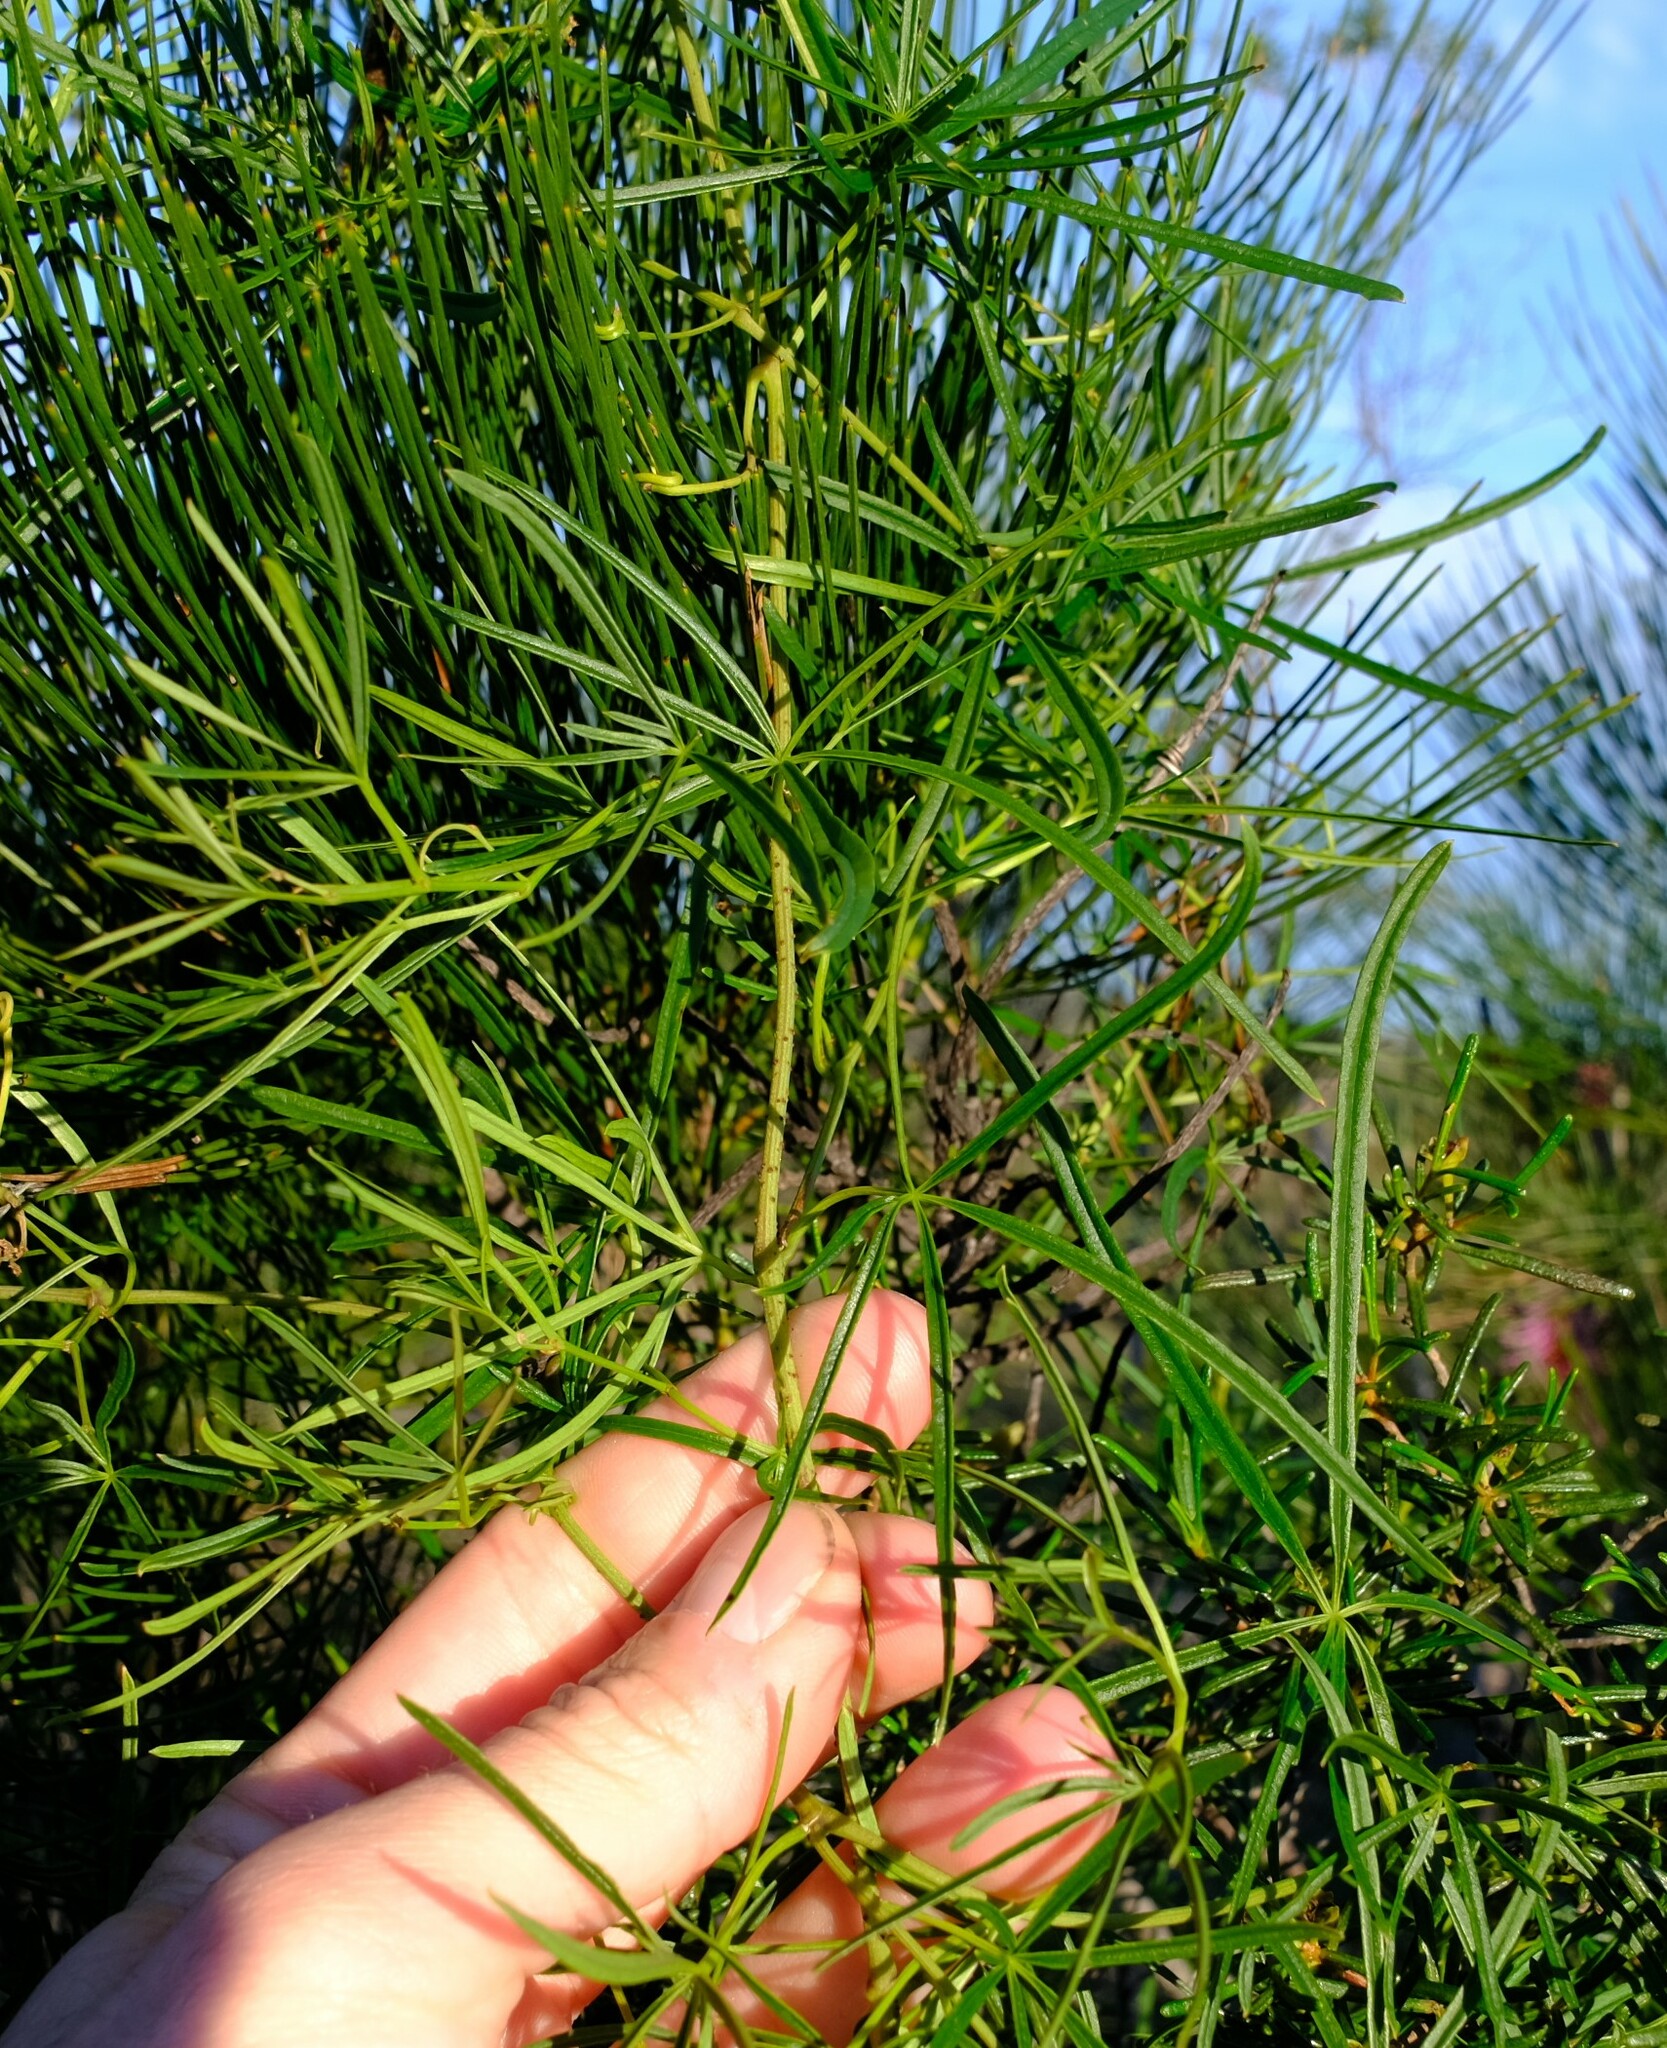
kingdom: Plantae
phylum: Tracheophyta
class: Magnoliopsida
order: Vitales
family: Vitaceae
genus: Clematicissus
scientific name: Clematicissus angustissima
